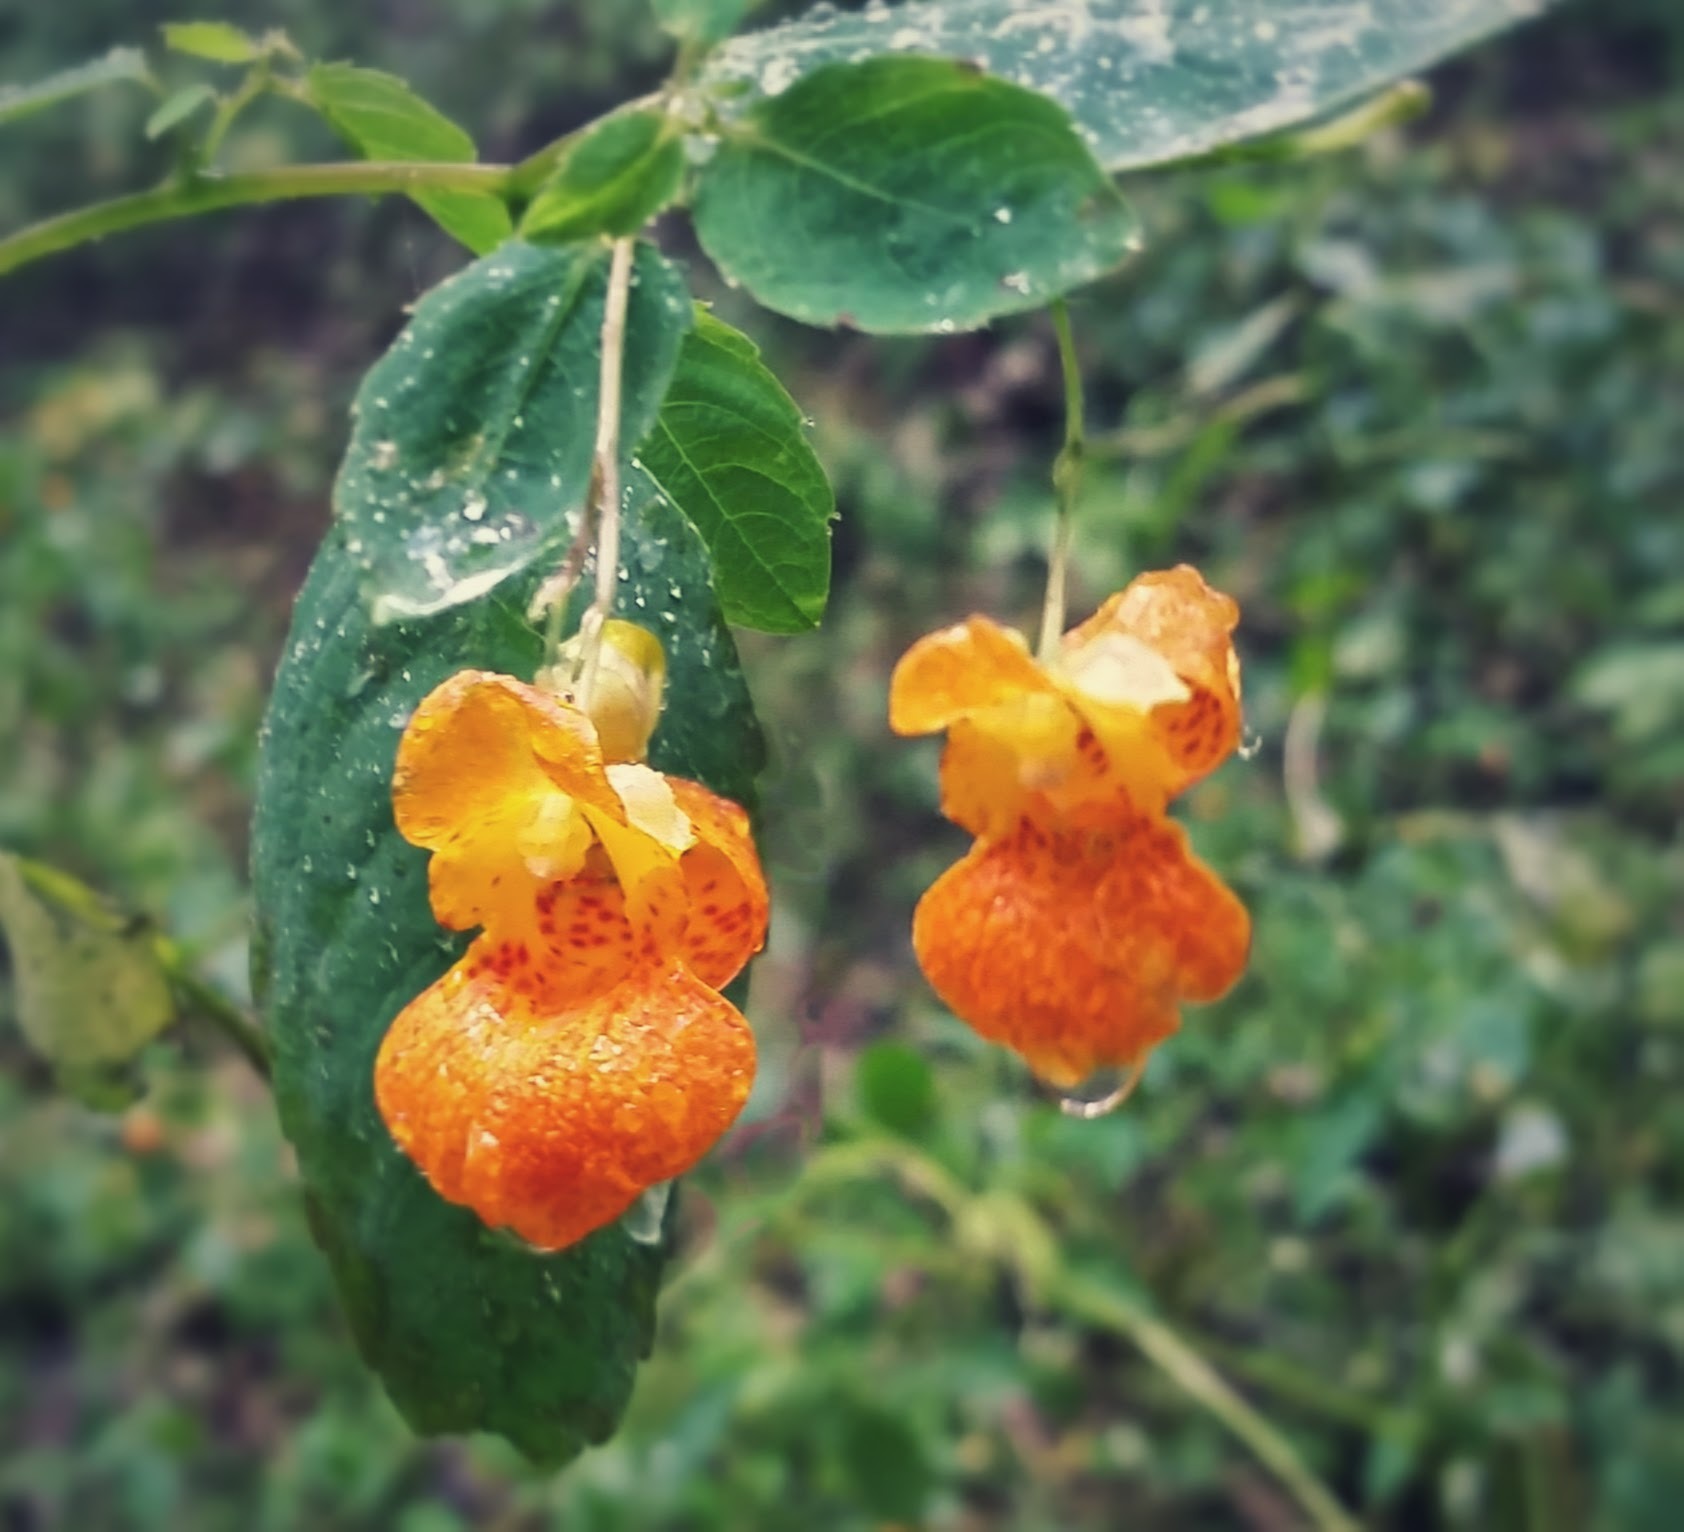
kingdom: Plantae
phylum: Tracheophyta
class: Magnoliopsida
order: Ericales
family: Balsaminaceae
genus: Impatiens
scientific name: Impatiens capensis
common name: Orange balsam
